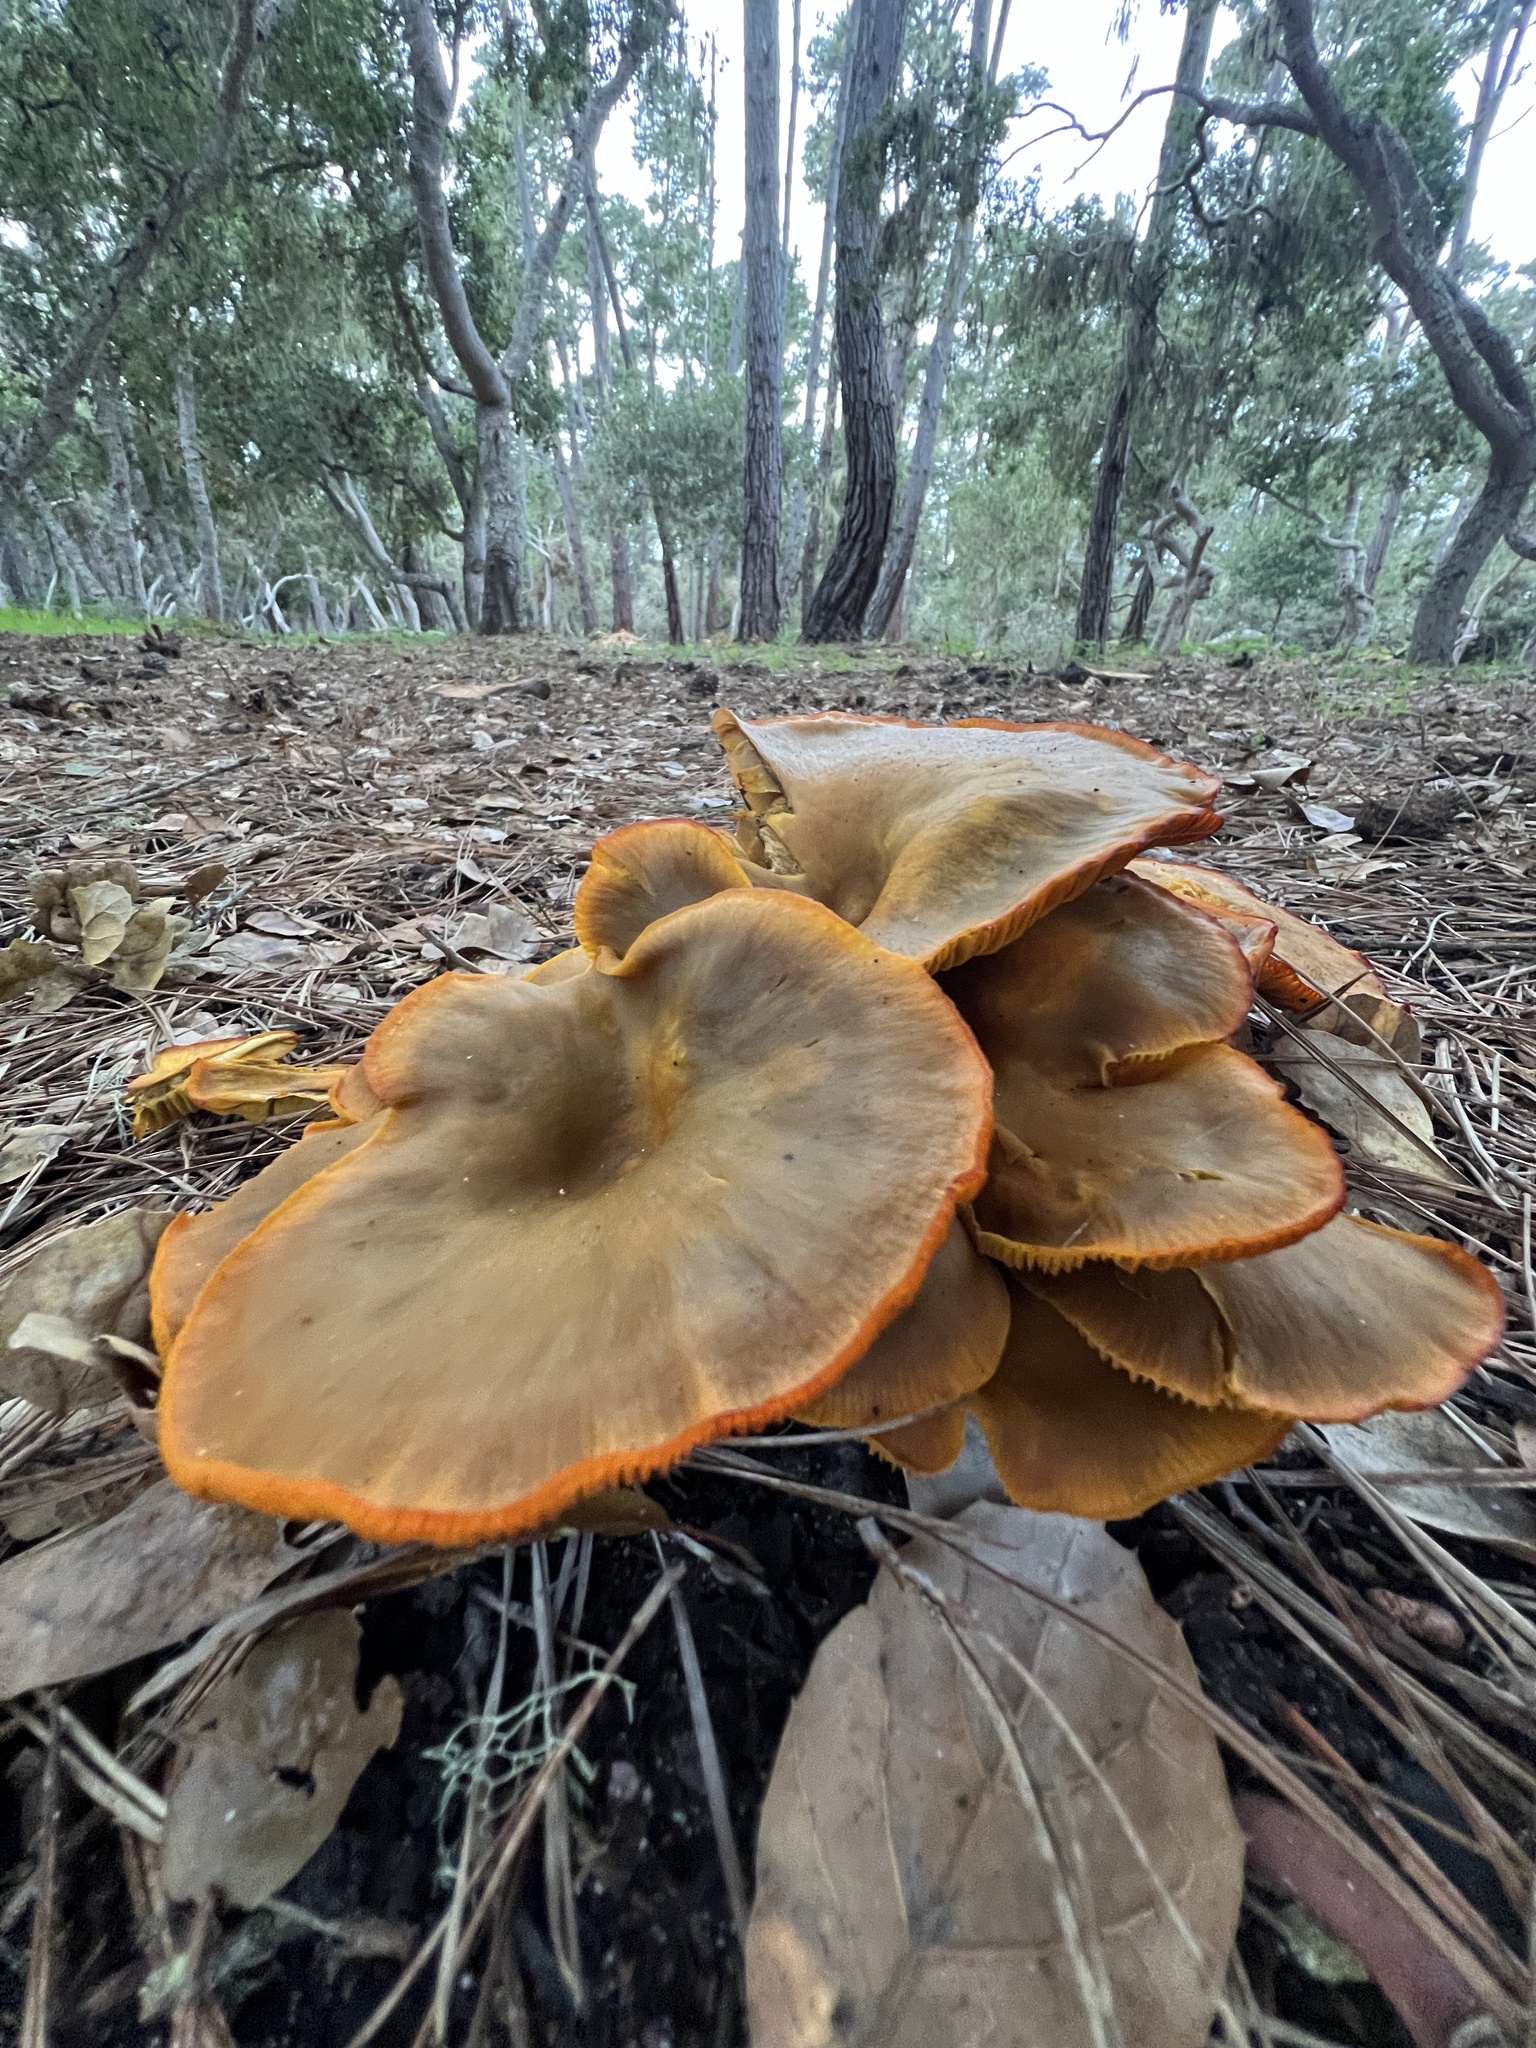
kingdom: Fungi
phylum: Basidiomycota
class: Agaricomycetes
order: Agaricales
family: Omphalotaceae
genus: Omphalotus
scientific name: Omphalotus olivascens
